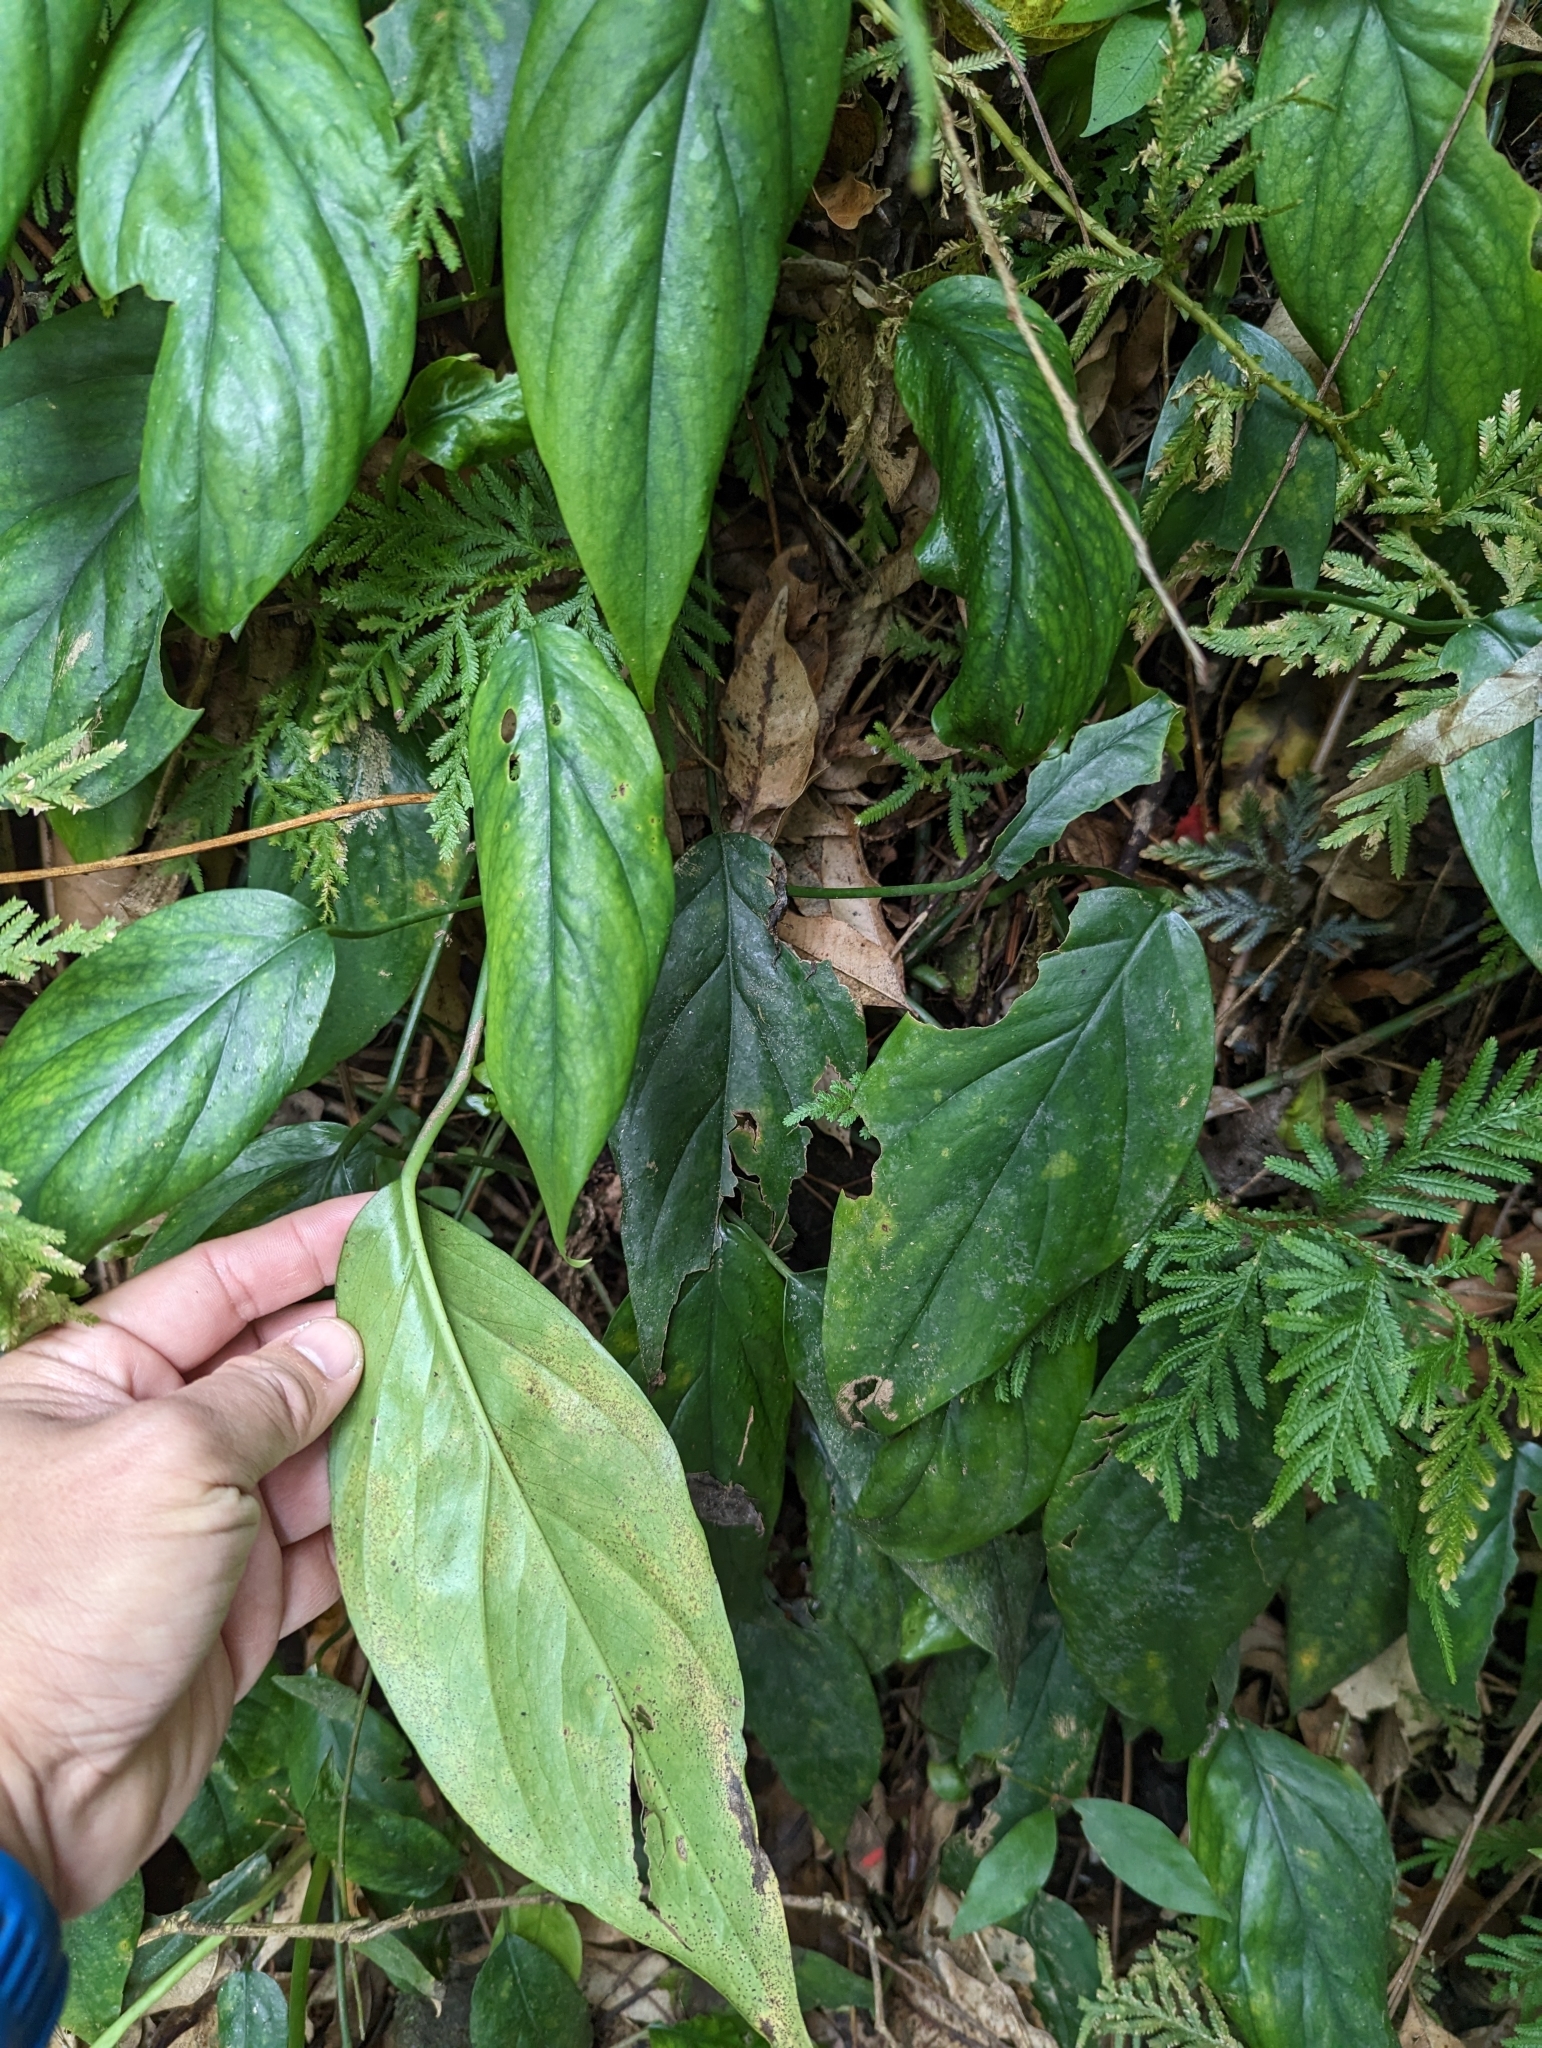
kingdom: Plantae
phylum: Tracheophyta
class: Liliopsida
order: Alismatales
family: Araceae
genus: Epipremnum
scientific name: Epipremnum pinnatum
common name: Centipede tongavine
